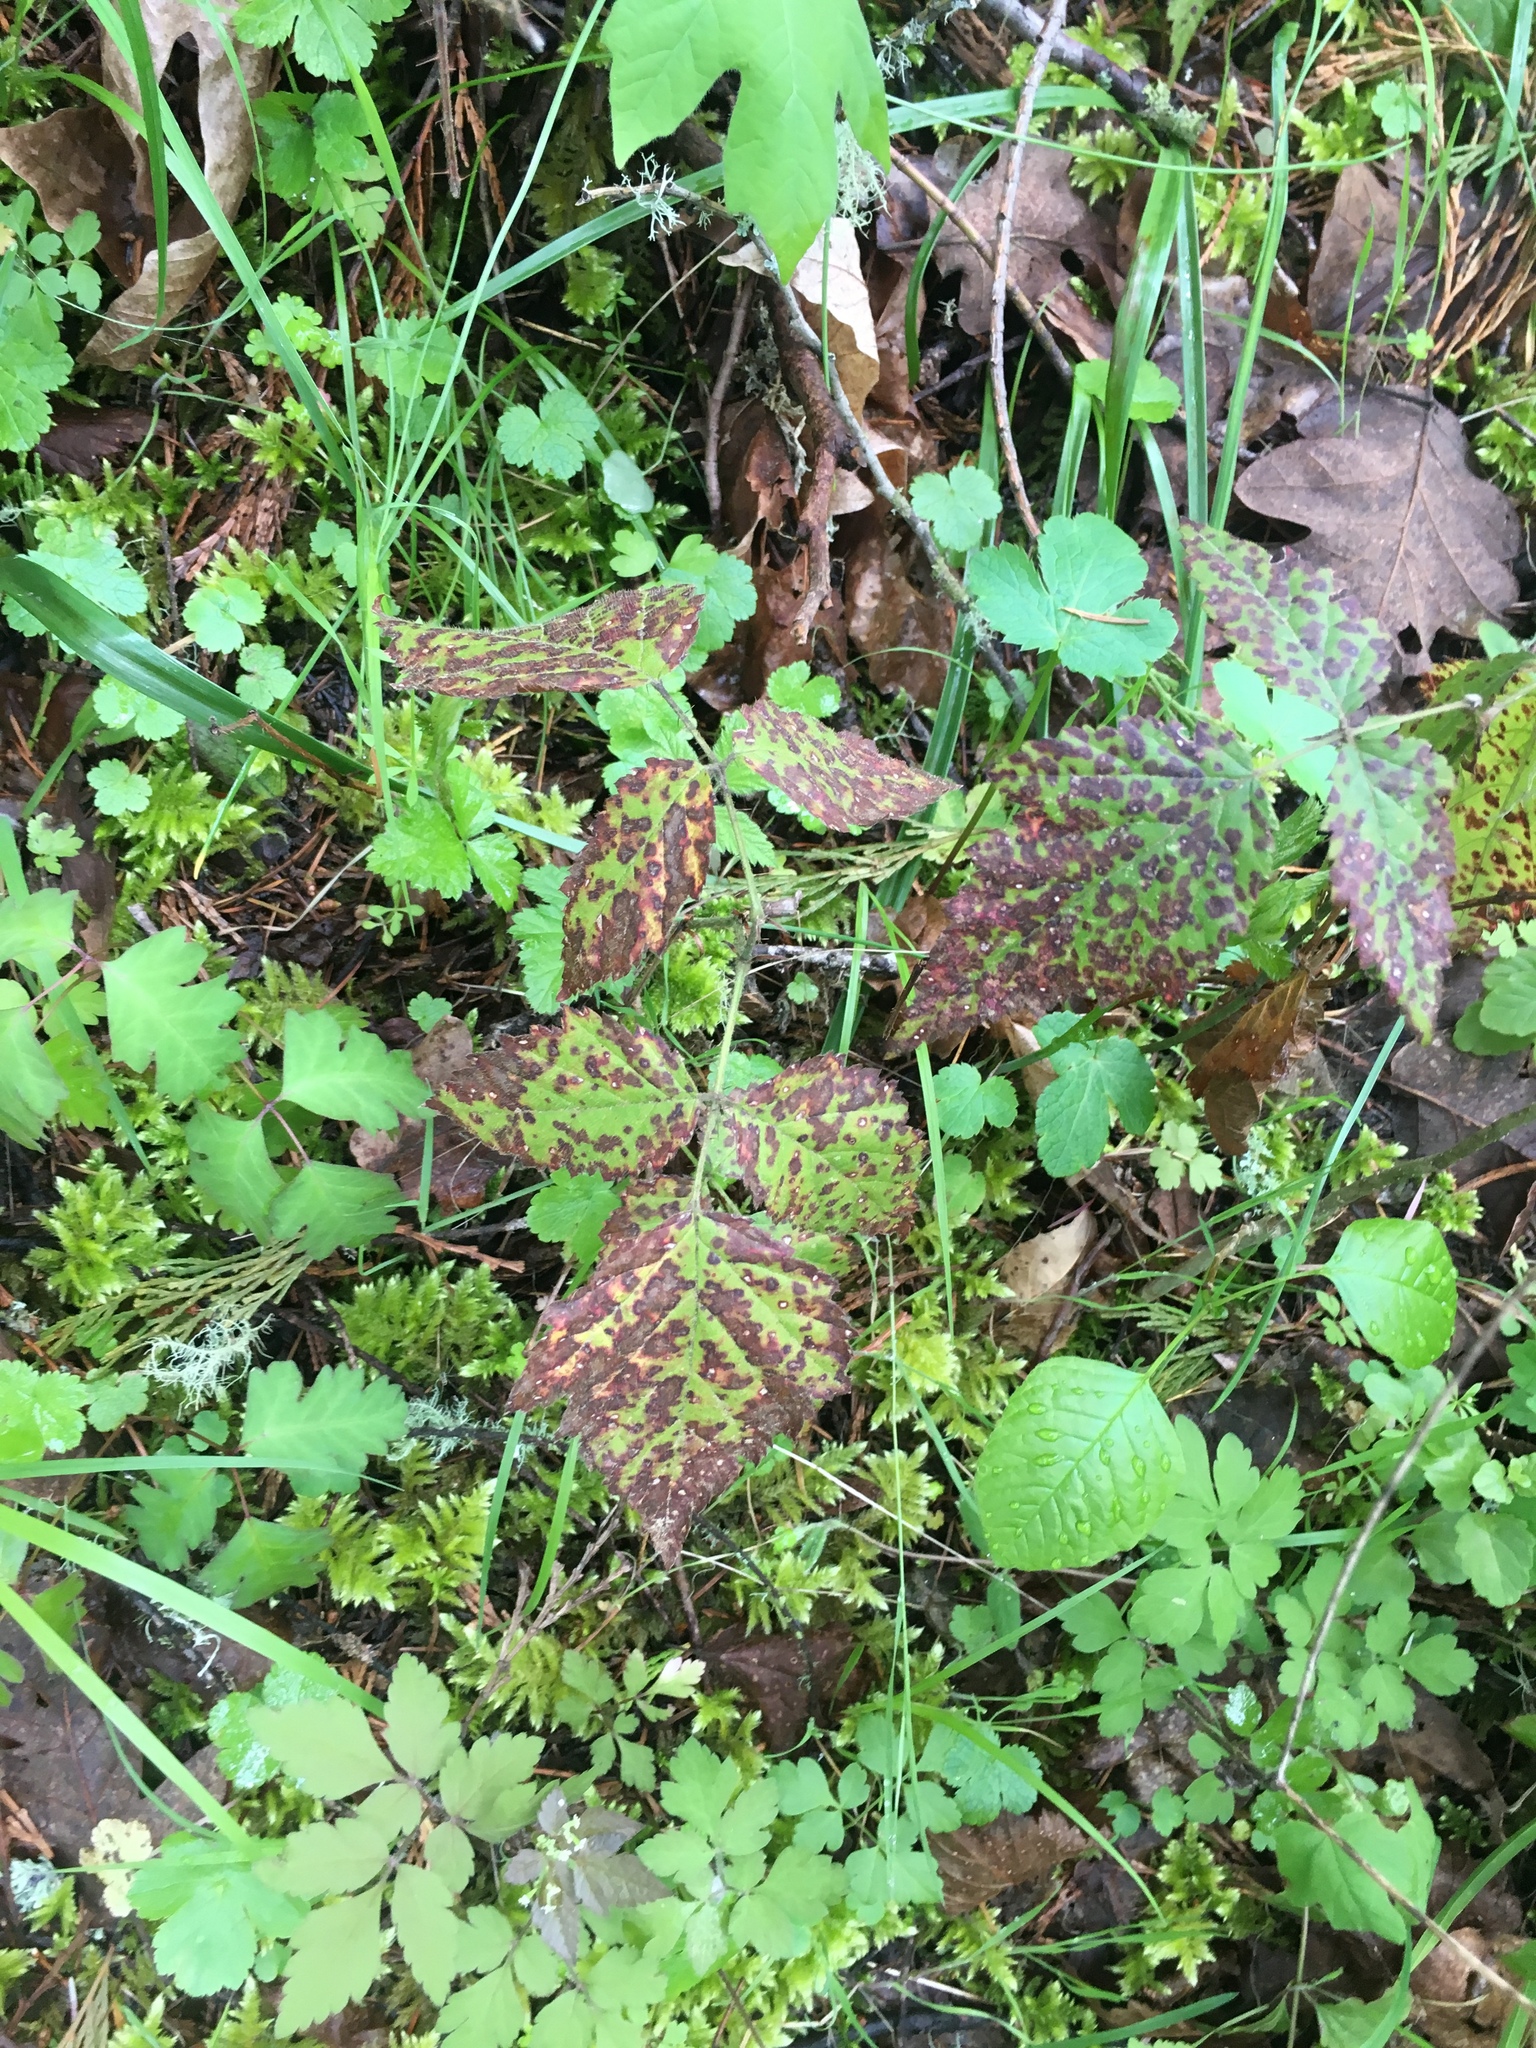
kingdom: Plantae
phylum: Tracheophyta
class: Magnoliopsida
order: Rosales
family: Rosaceae
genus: Rubus
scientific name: Rubus ursinus
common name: Pacific blackberry
